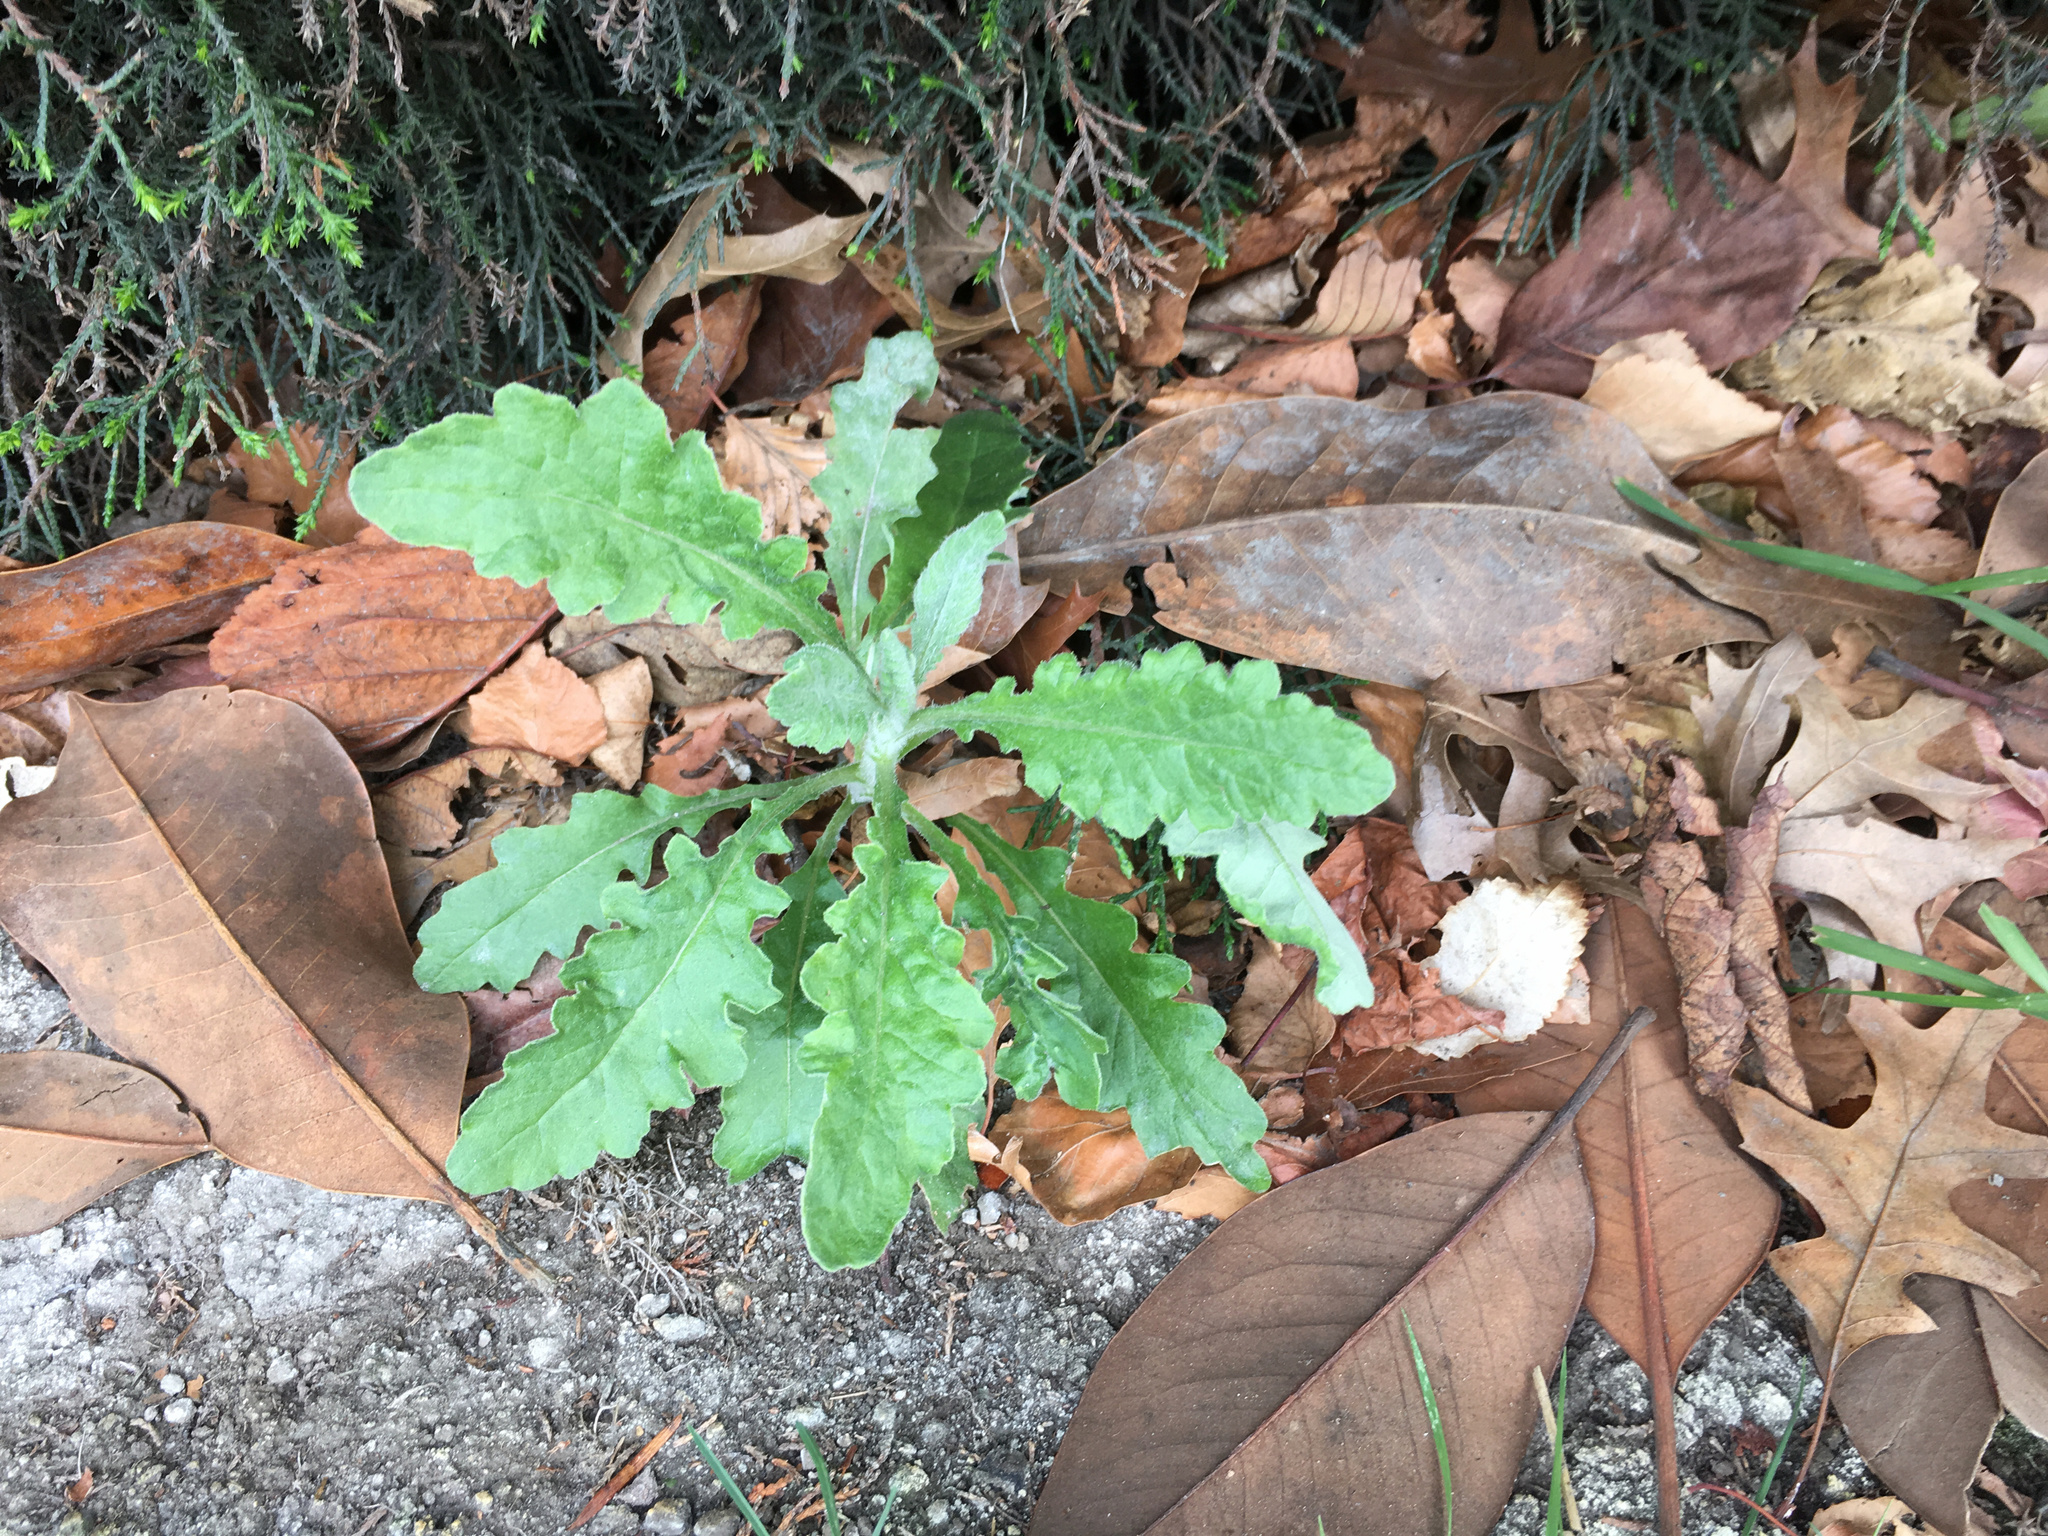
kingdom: Plantae
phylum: Tracheophyta
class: Magnoliopsida
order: Asterales
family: Asteraceae
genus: Senecio
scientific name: Senecio glomeratus
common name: Cutleaf burnweed
